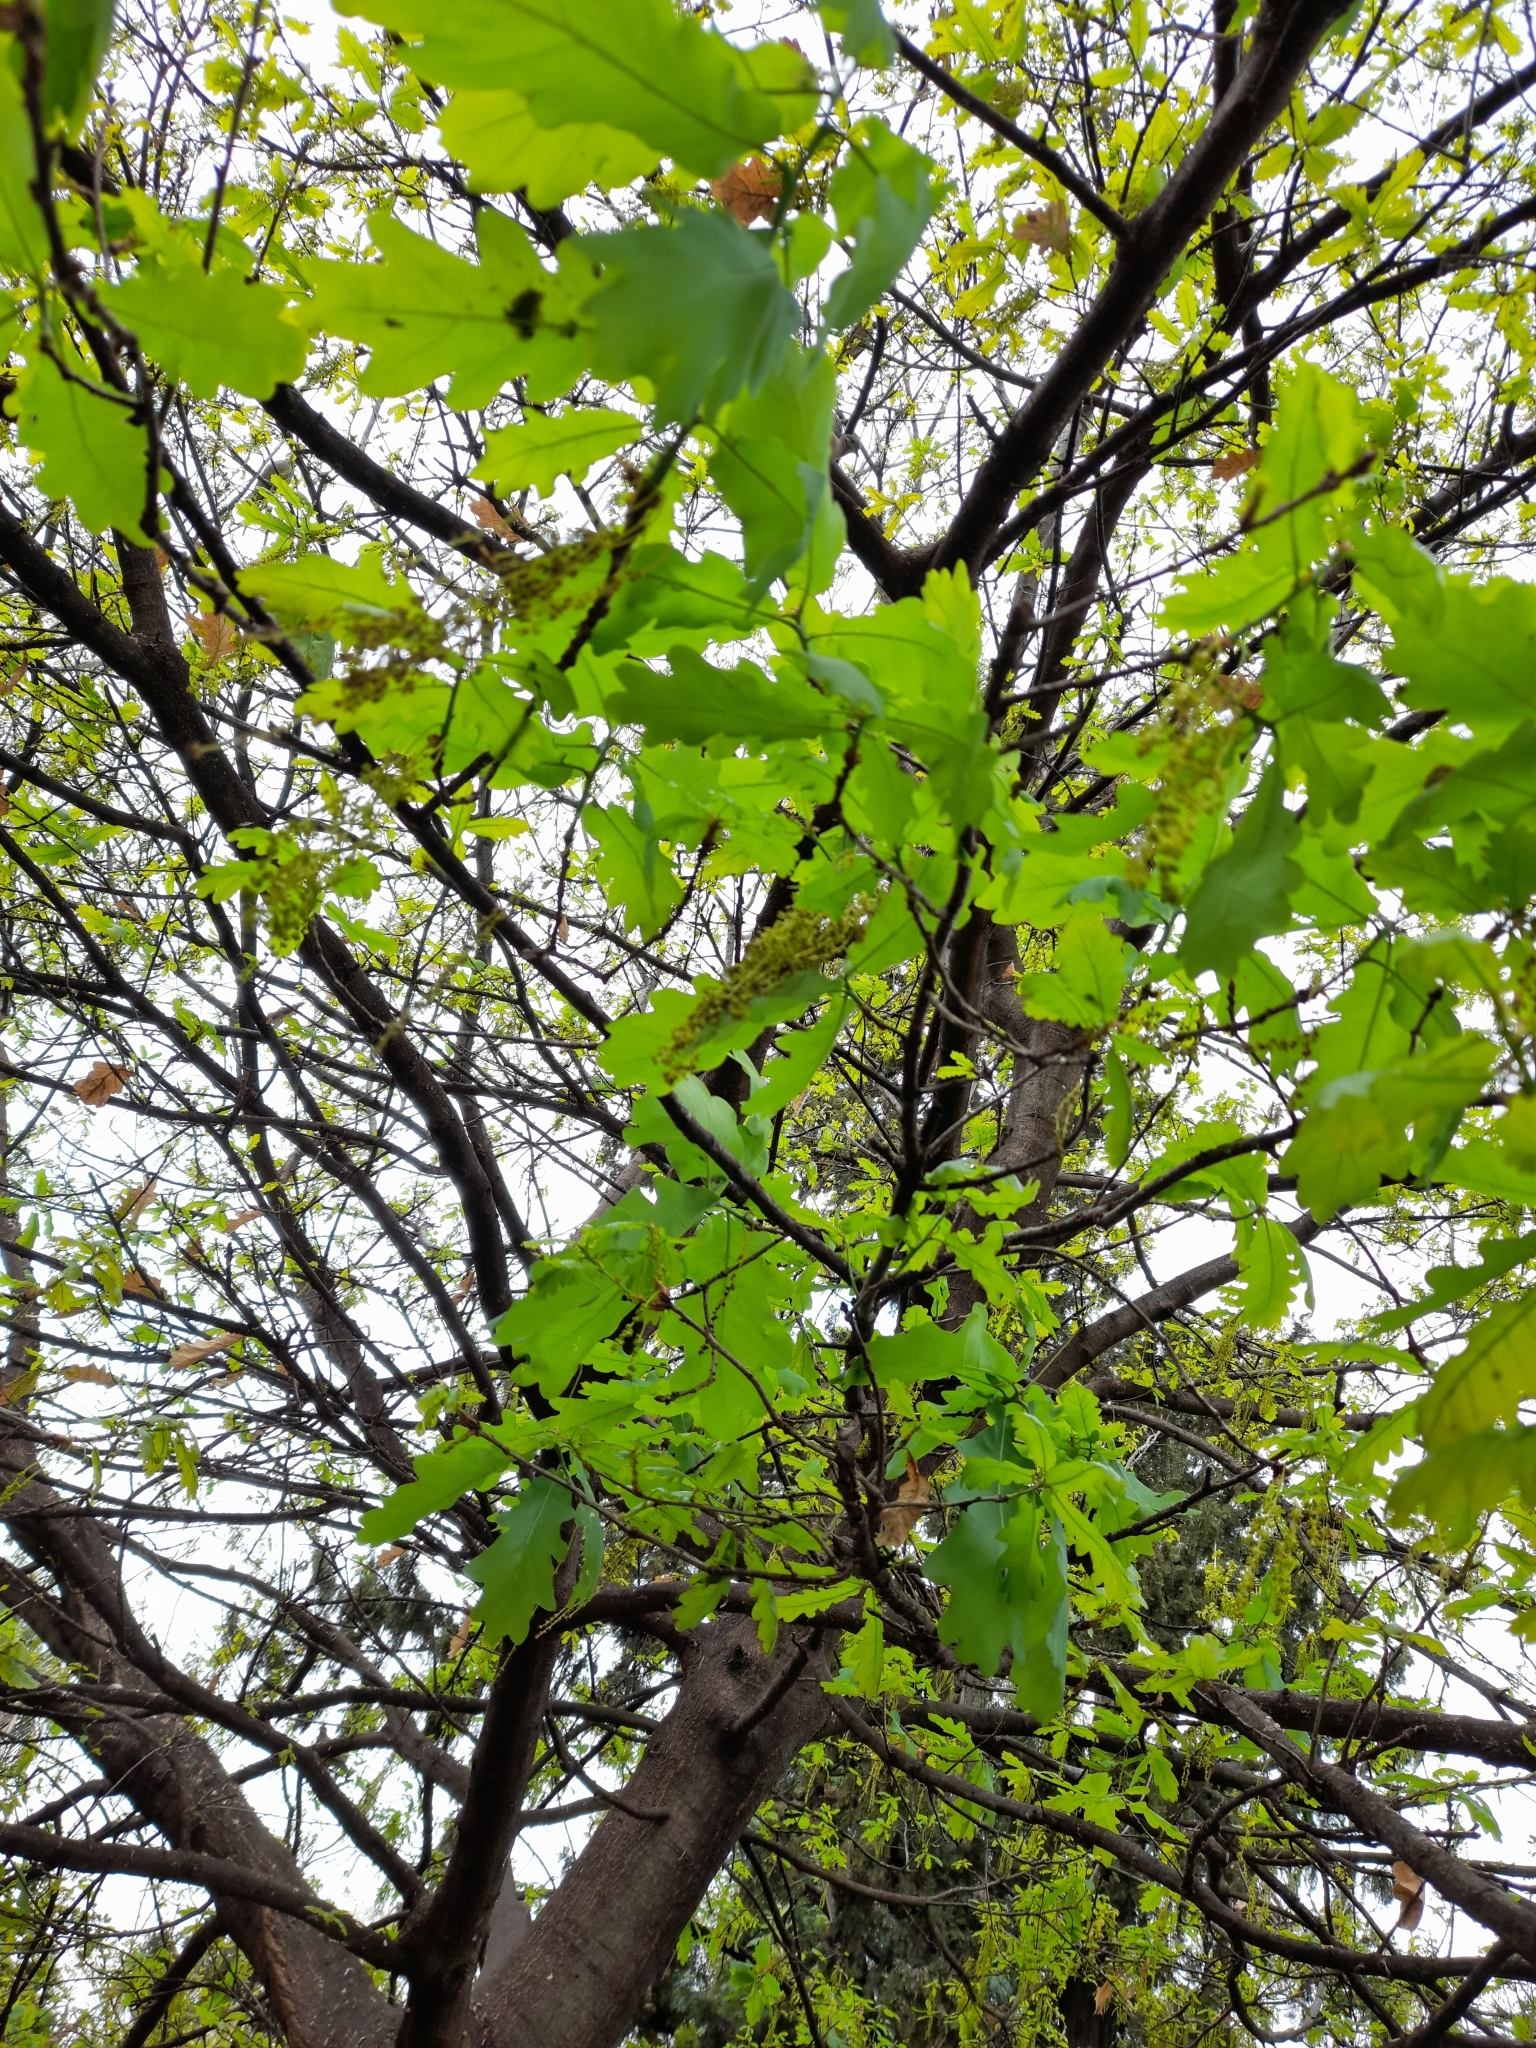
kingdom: Plantae
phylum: Tracheophyta
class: Magnoliopsida
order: Fagales
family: Fagaceae
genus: Quercus
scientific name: Quercus robur
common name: Pedunculate oak
